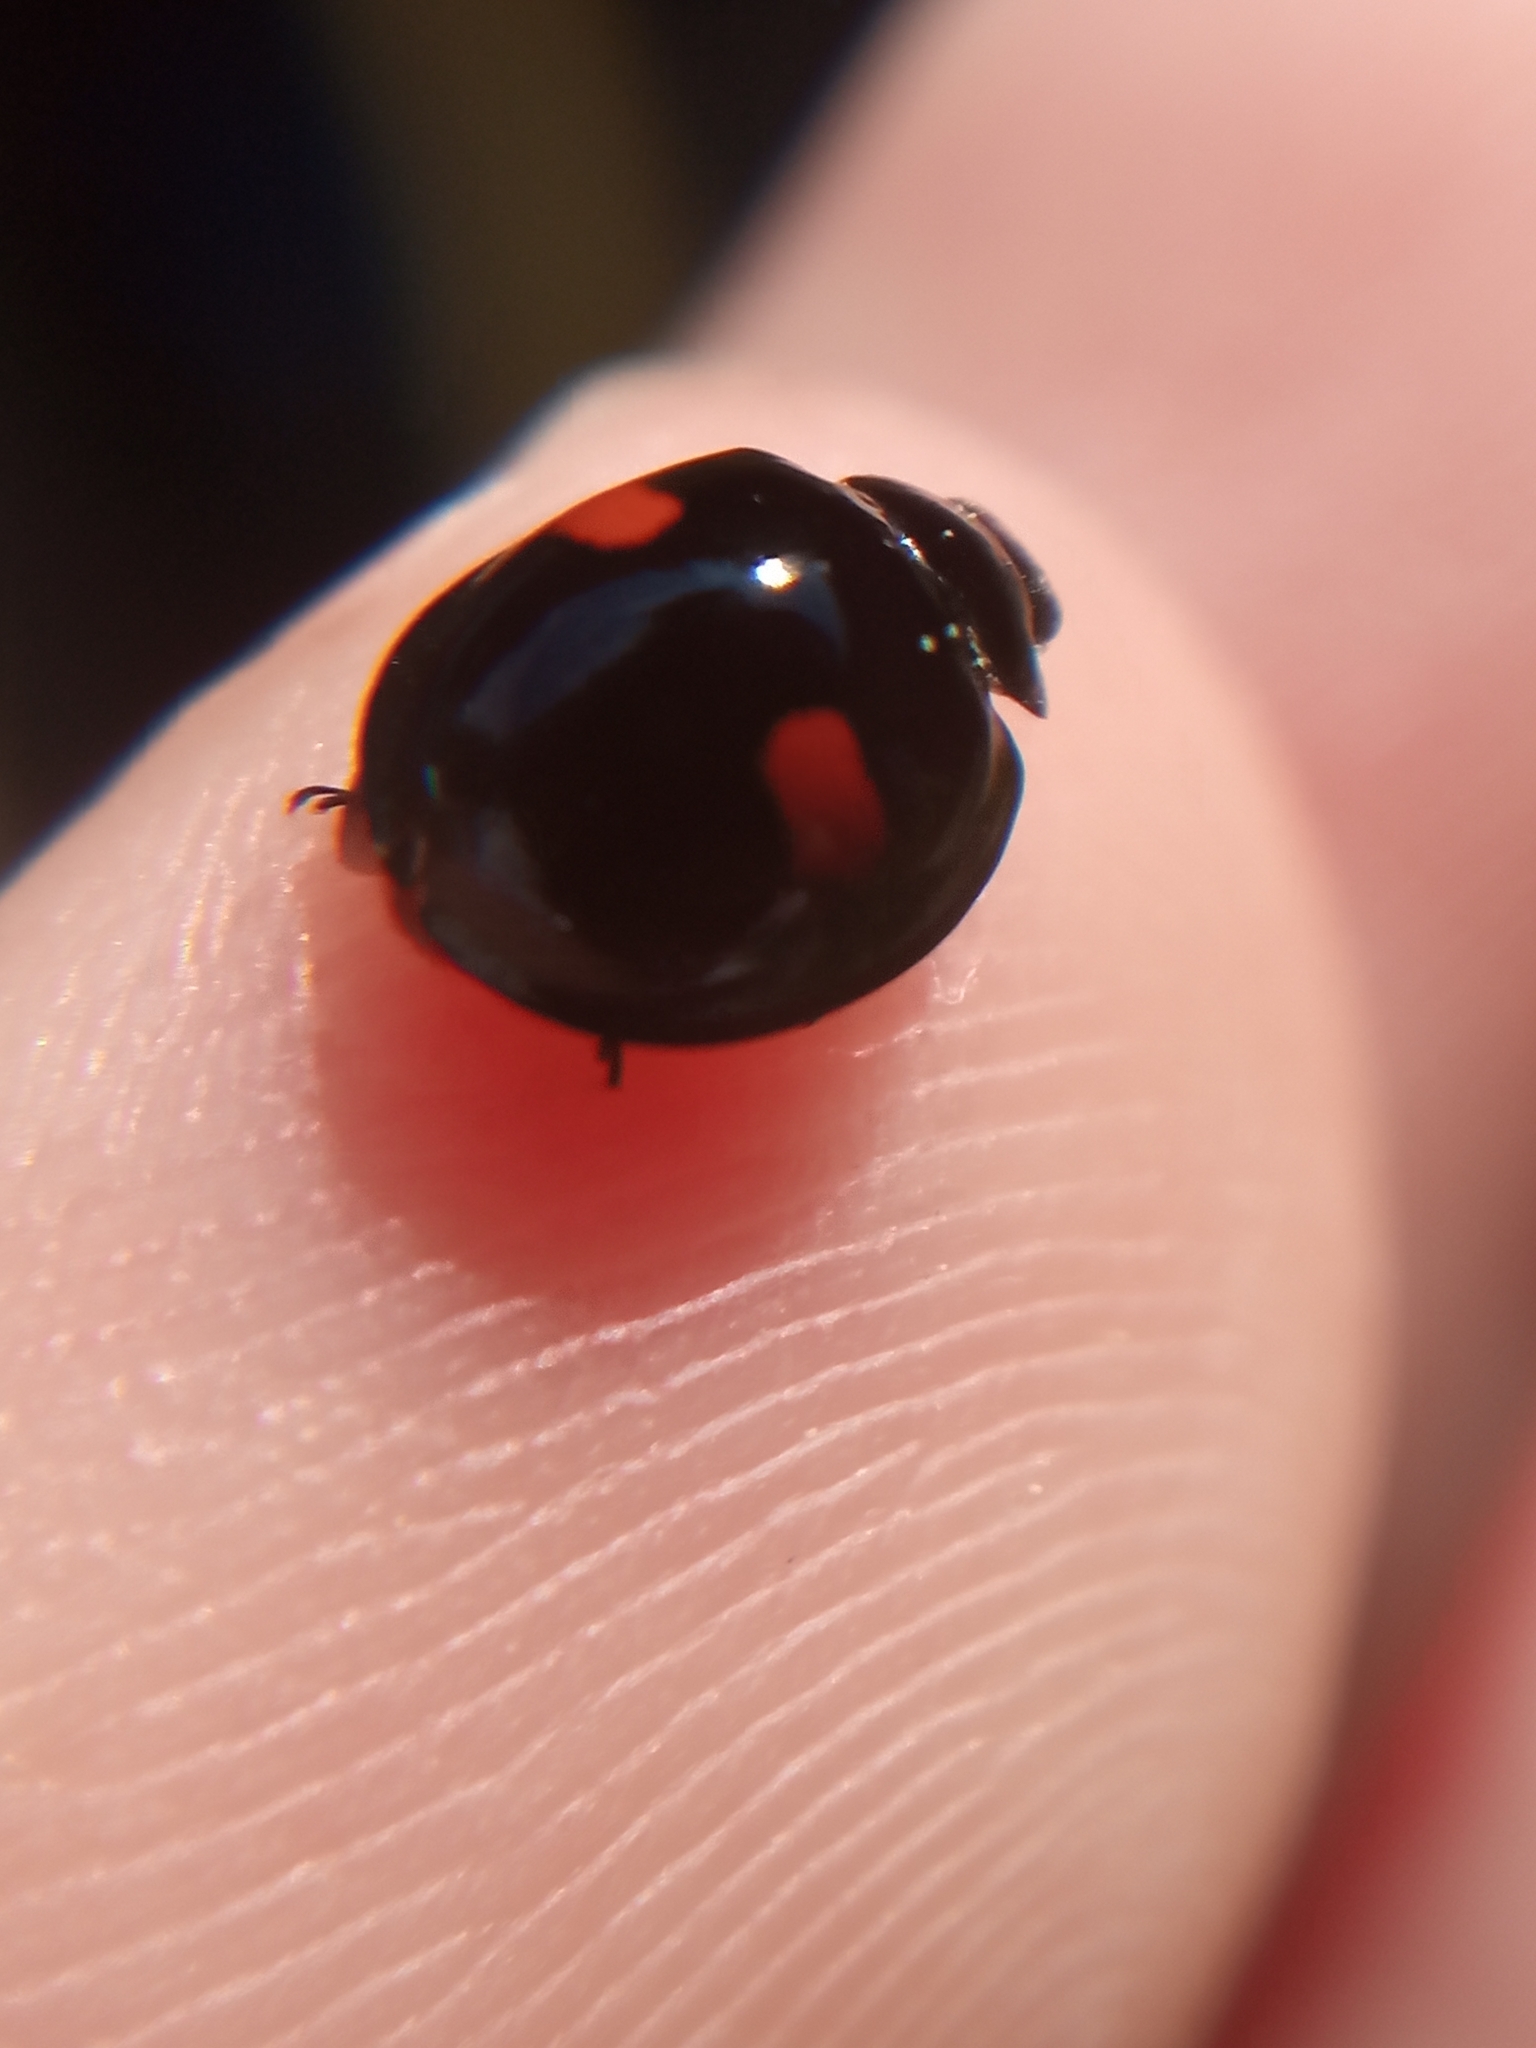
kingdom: Animalia
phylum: Arthropoda
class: Insecta
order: Coleoptera
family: Coccinellidae
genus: Chilocorus
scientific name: Chilocorus renipustulatus
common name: Kidney-spot ladybird
